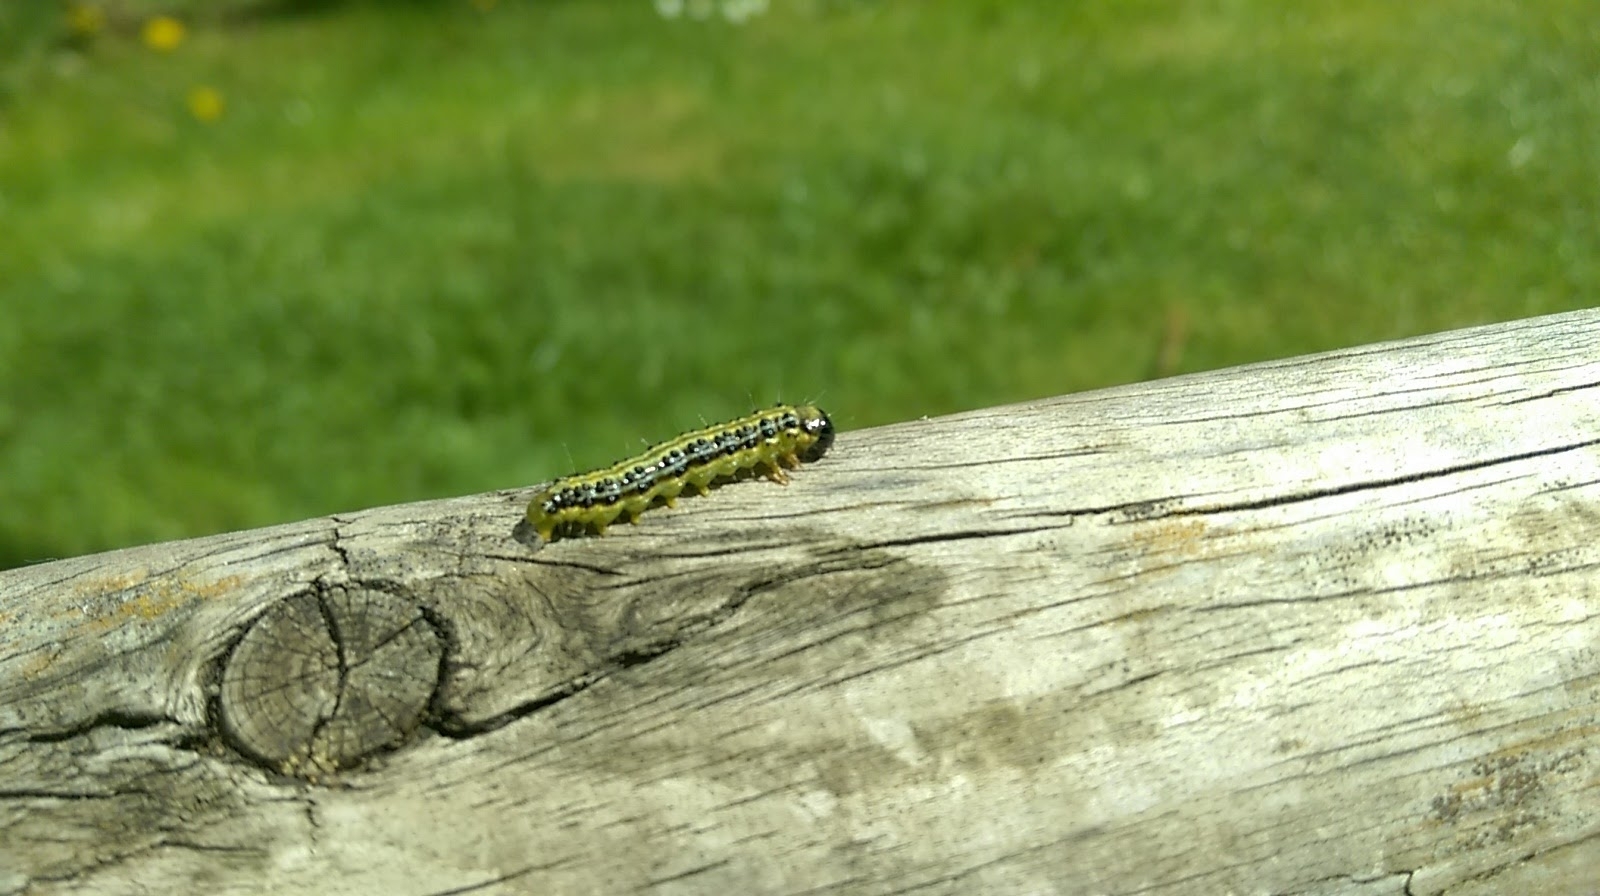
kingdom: Animalia
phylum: Arthropoda
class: Insecta
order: Lepidoptera
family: Crambidae
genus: Cydalima
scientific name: Cydalima perspectalis
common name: Box tree moth
